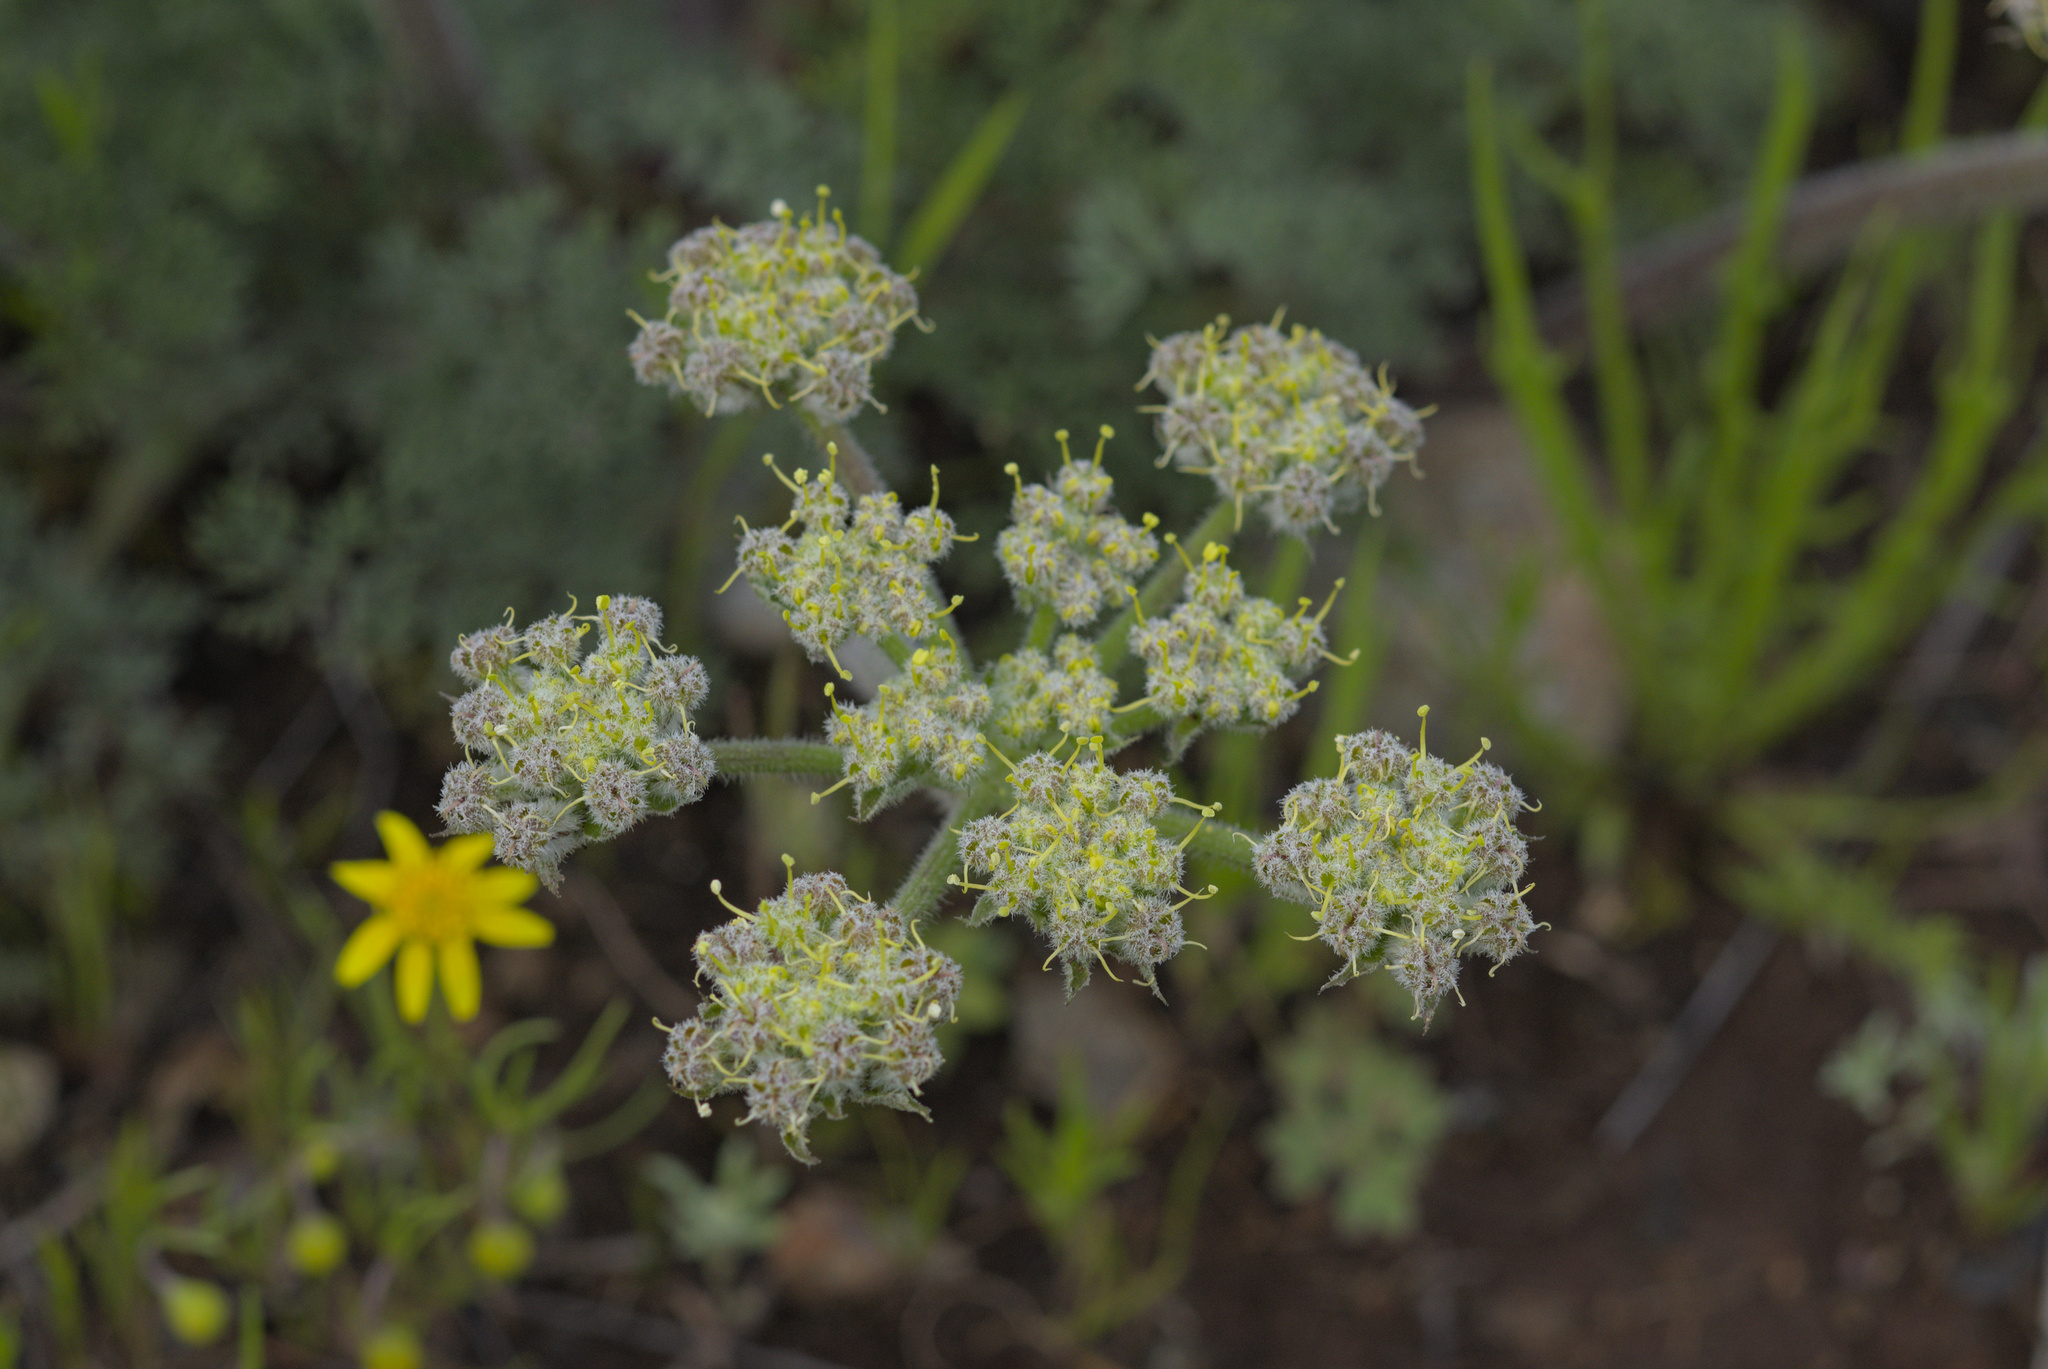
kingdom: Plantae
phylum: Tracheophyta
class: Magnoliopsida
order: Apiales
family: Apiaceae
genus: Lomatium
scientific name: Lomatium dasycarpum
